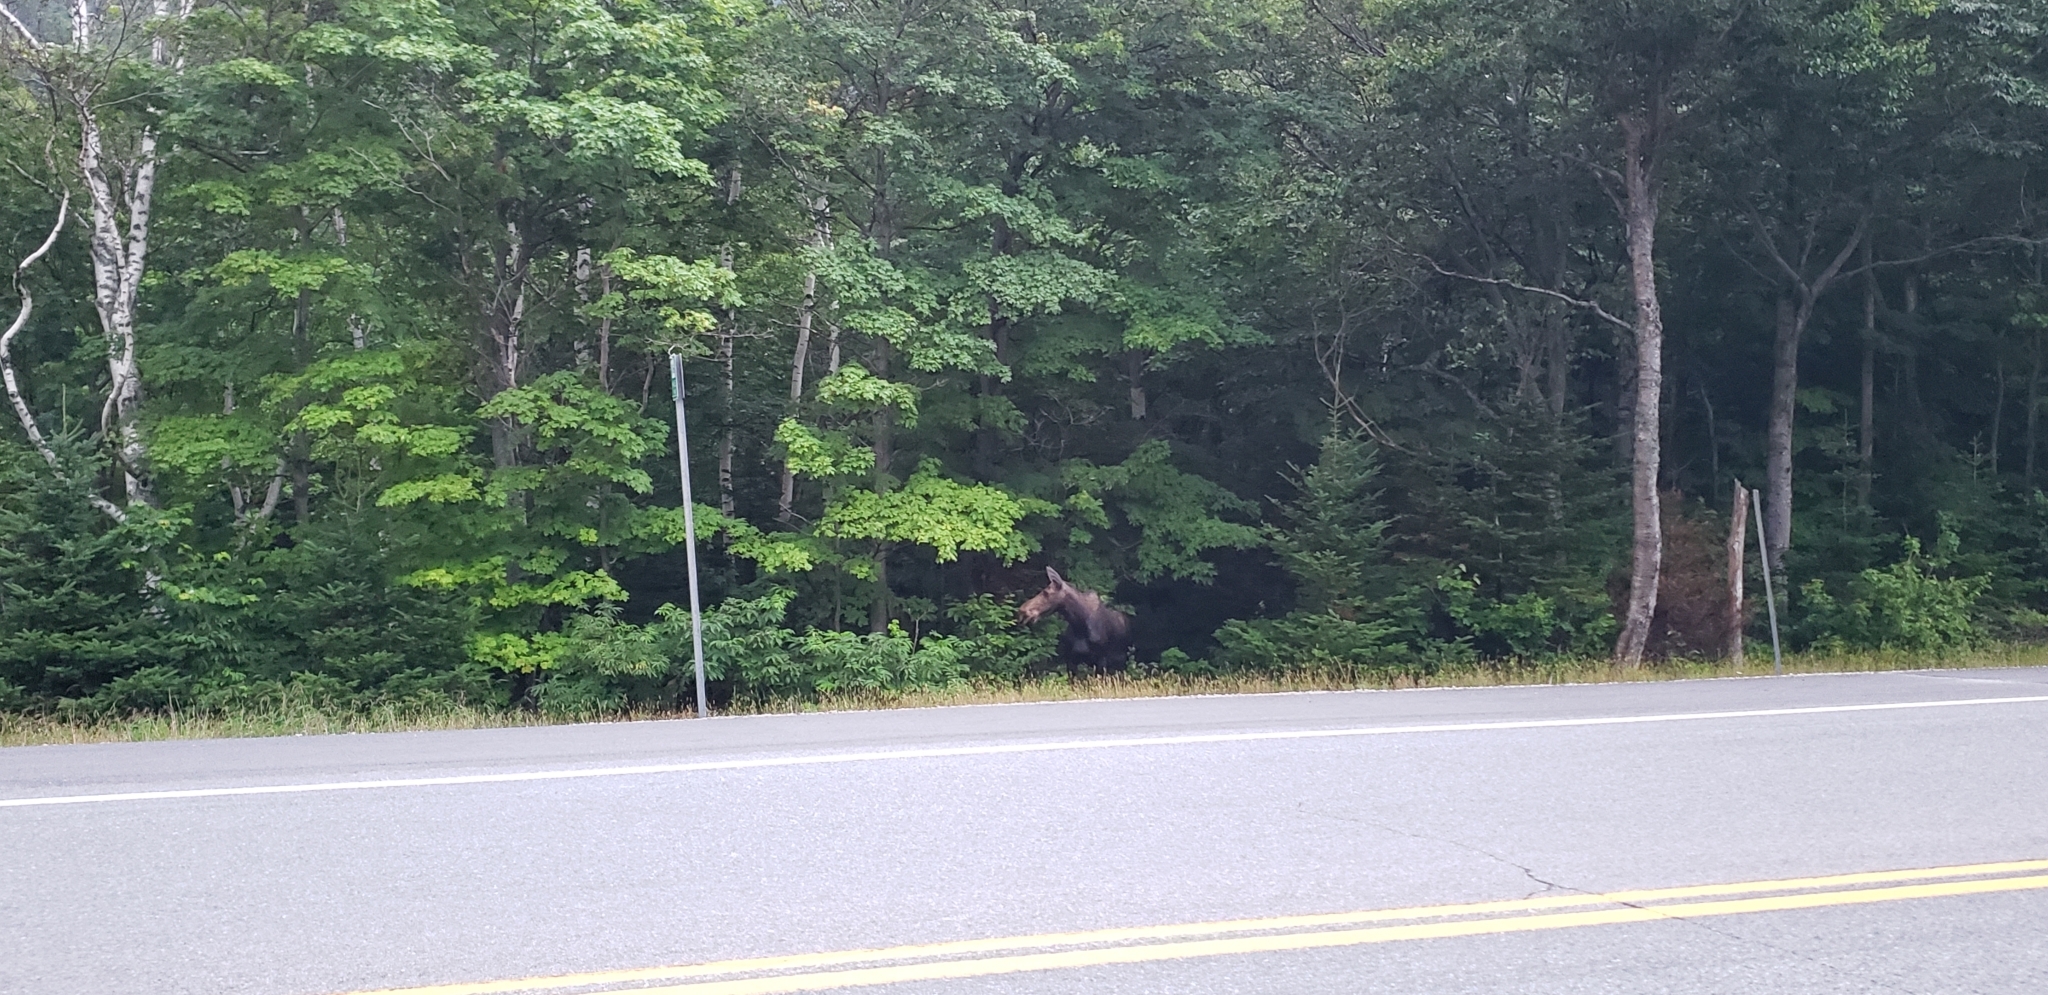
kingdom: Animalia
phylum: Chordata
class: Mammalia
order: Artiodactyla
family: Cervidae
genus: Alces
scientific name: Alces alces
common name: Moose
